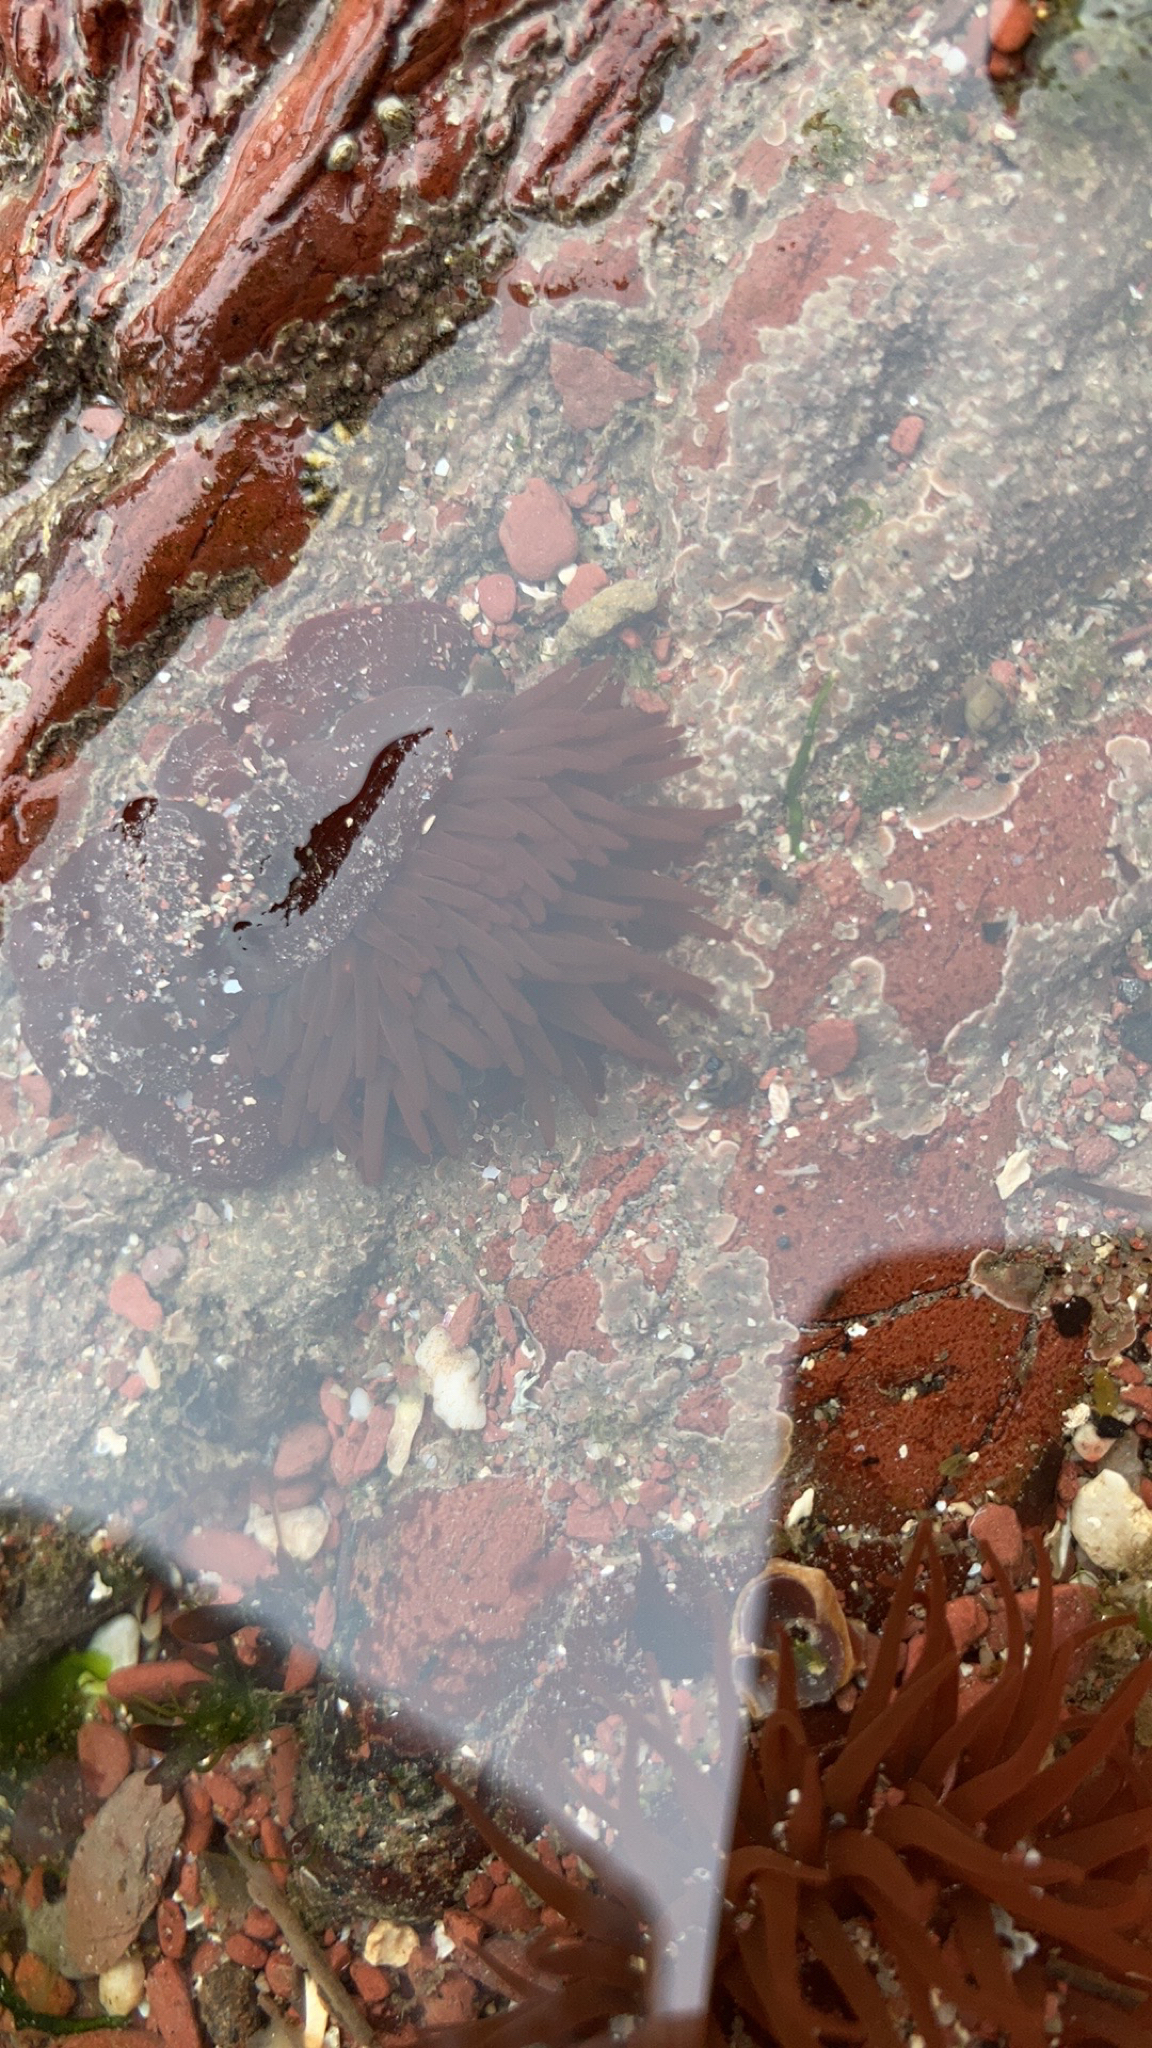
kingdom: Animalia
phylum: Cnidaria
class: Anthozoa
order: Actiniaria
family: Actiniidae
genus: Actinia
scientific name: Actinia equina
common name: Beadlet anemone
